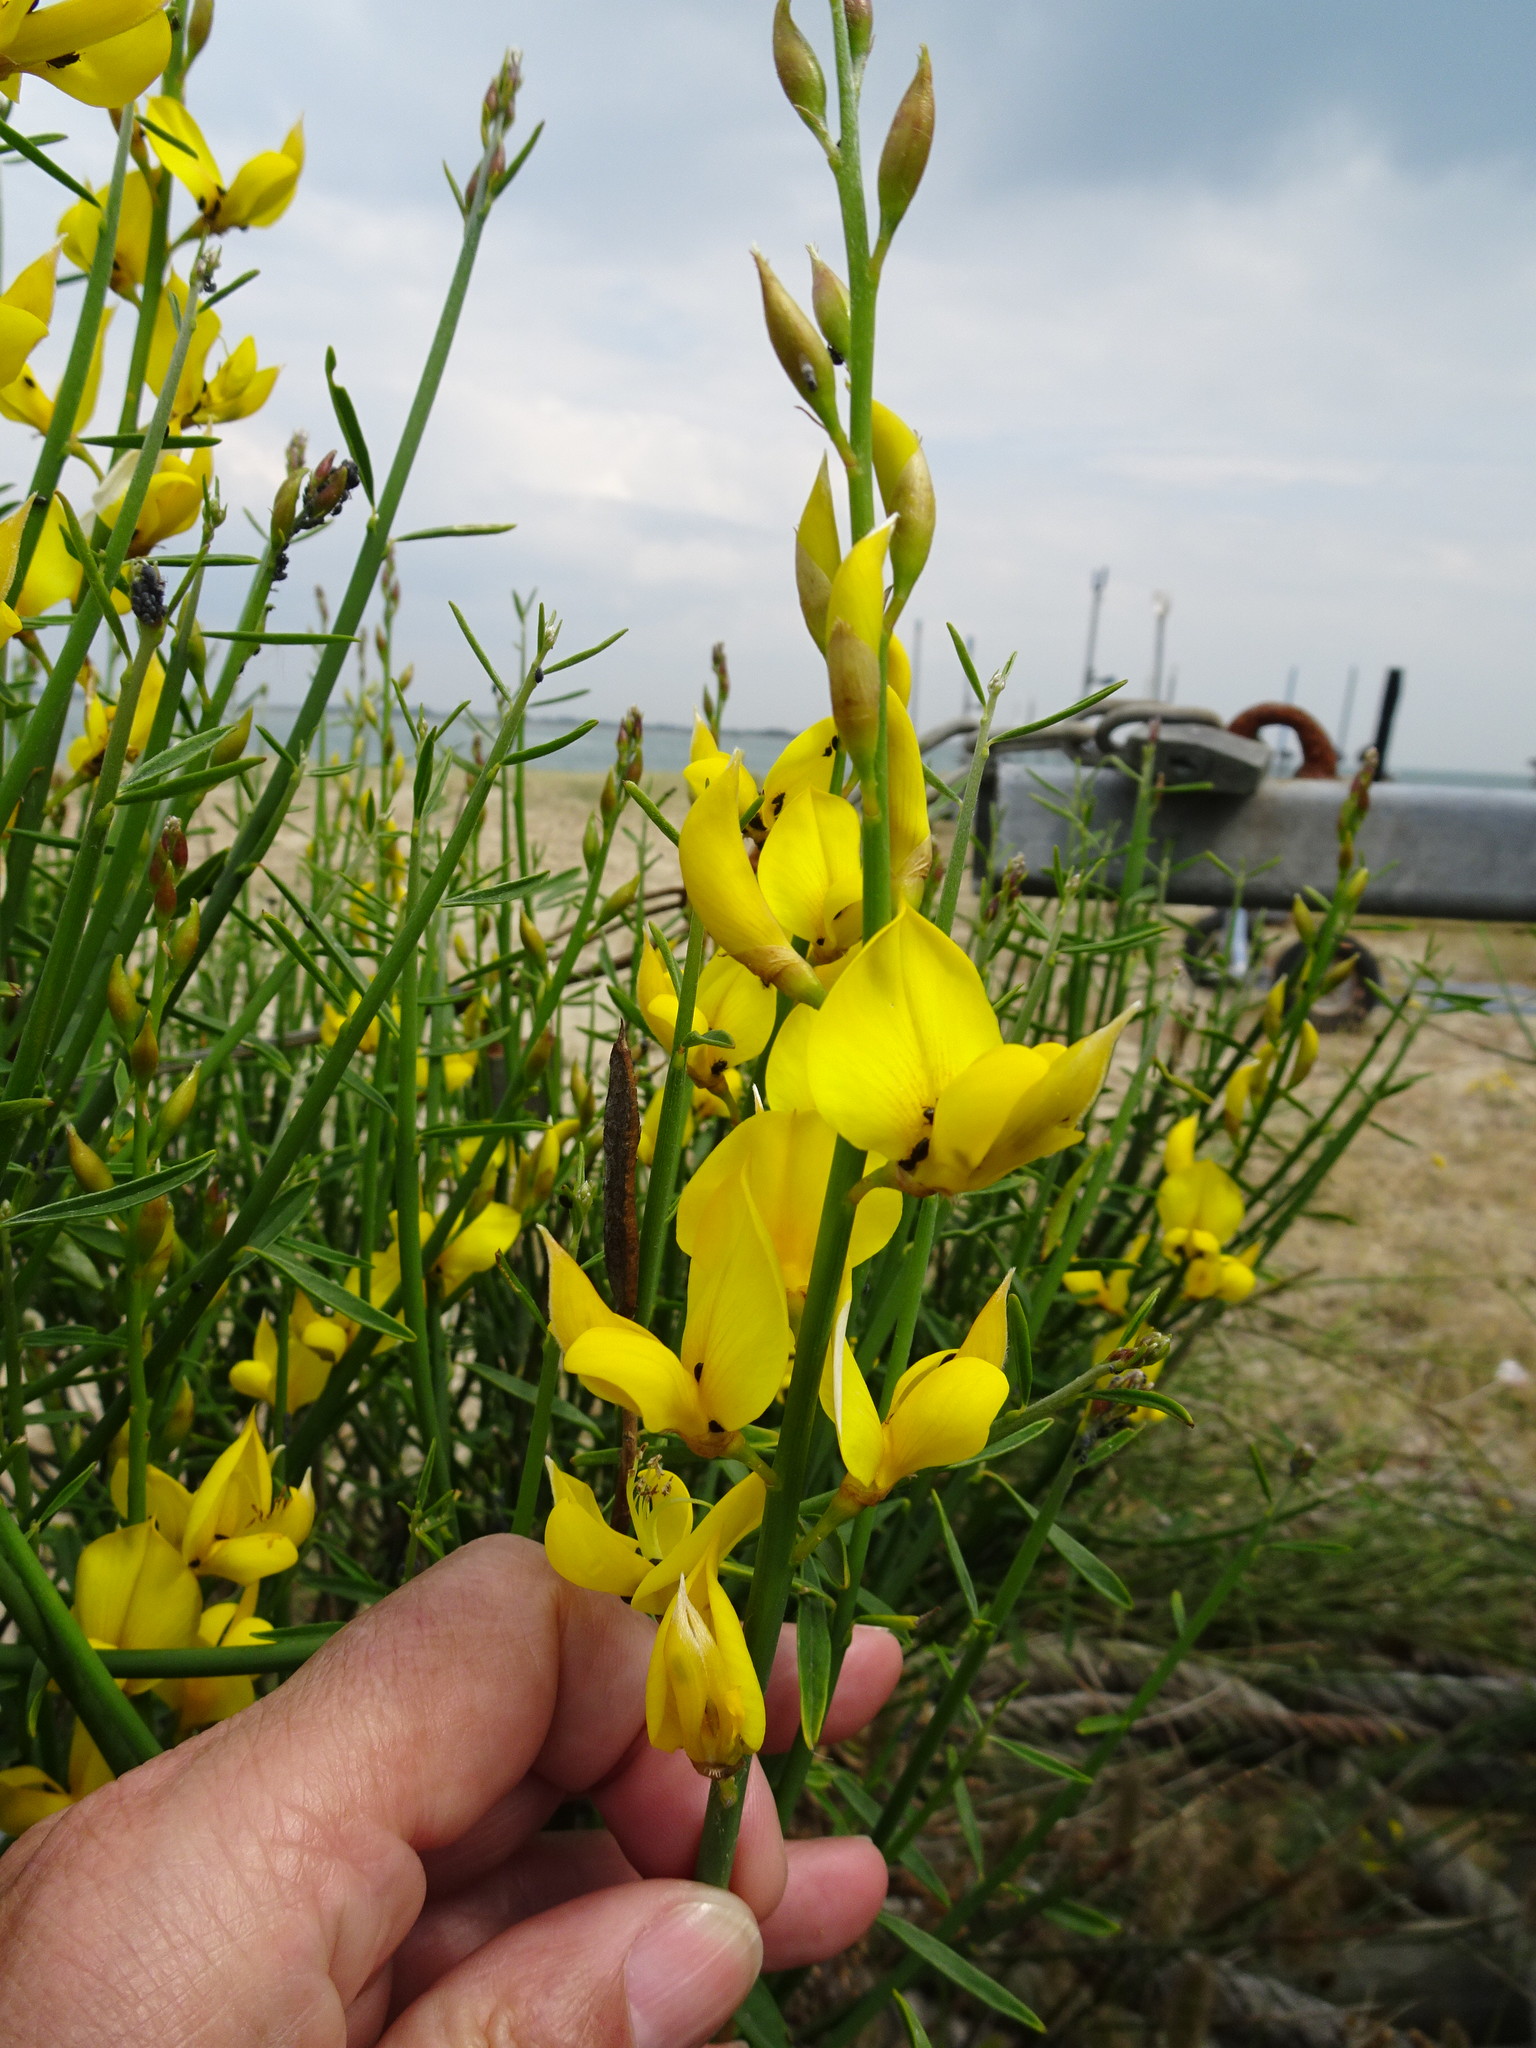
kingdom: Plantae
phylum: Tracheophyta
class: Magnoliopsida
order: Fabales
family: Fabaceae
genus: Spartium
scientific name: Spartium junceum
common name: Spanish broom
